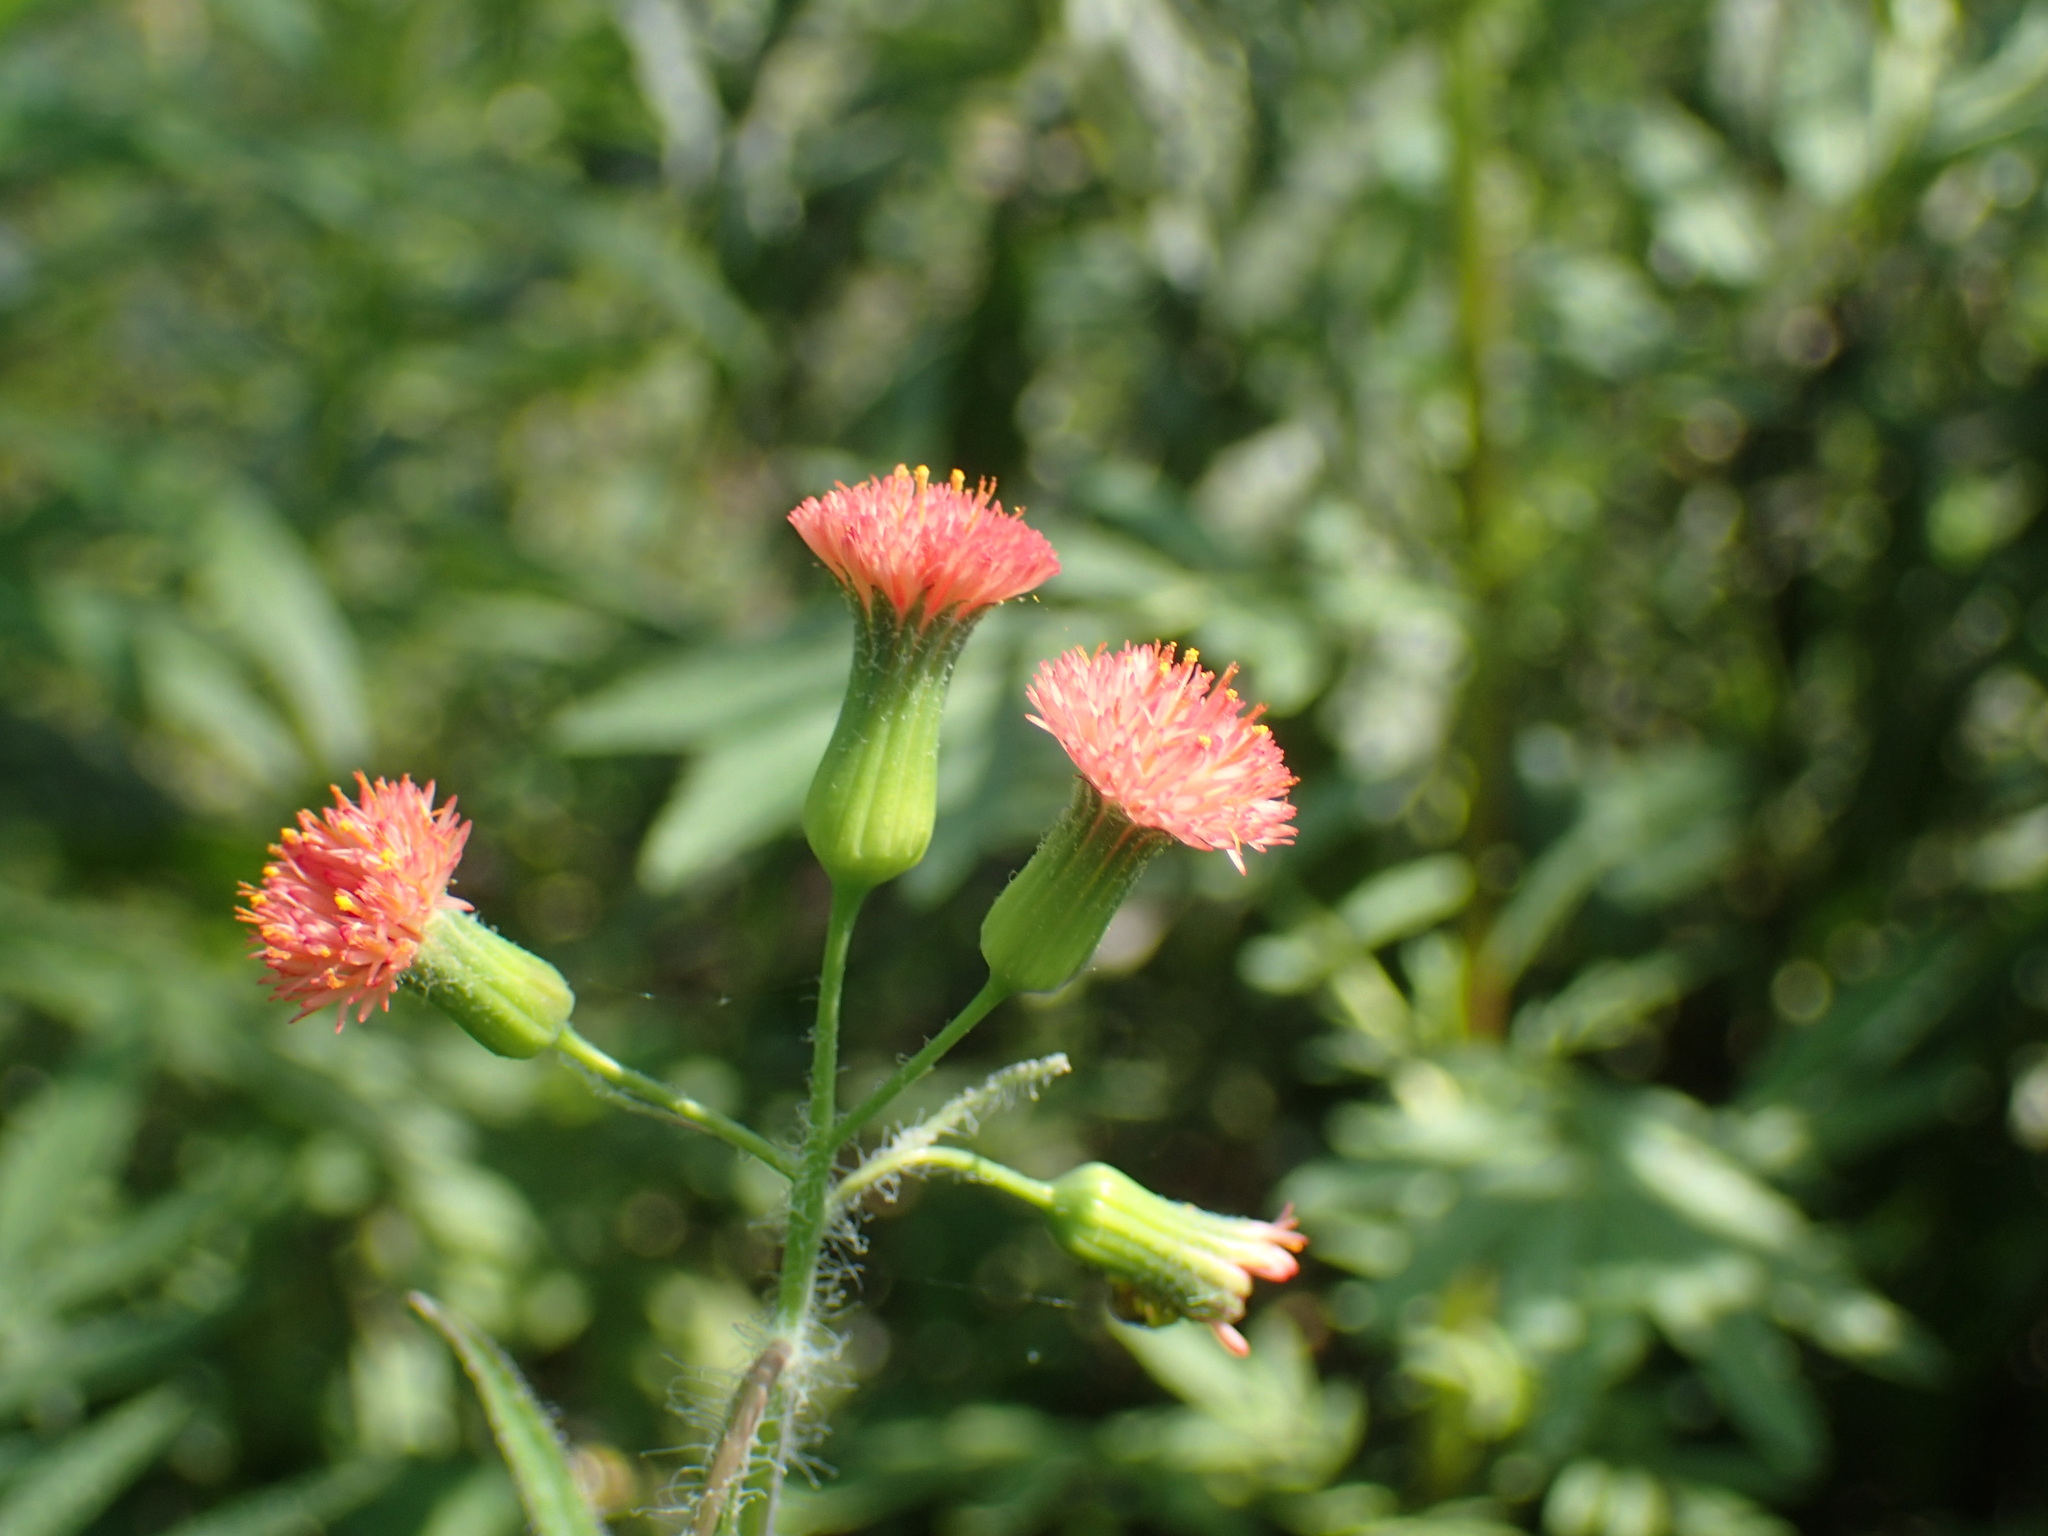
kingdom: Plantae
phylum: Tracheophyta
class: Magnoliopsida
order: Asterales
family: Asteraceae
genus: Crassocephalum
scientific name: Crassocephalum crepidioides
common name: Redflower ragleaf
